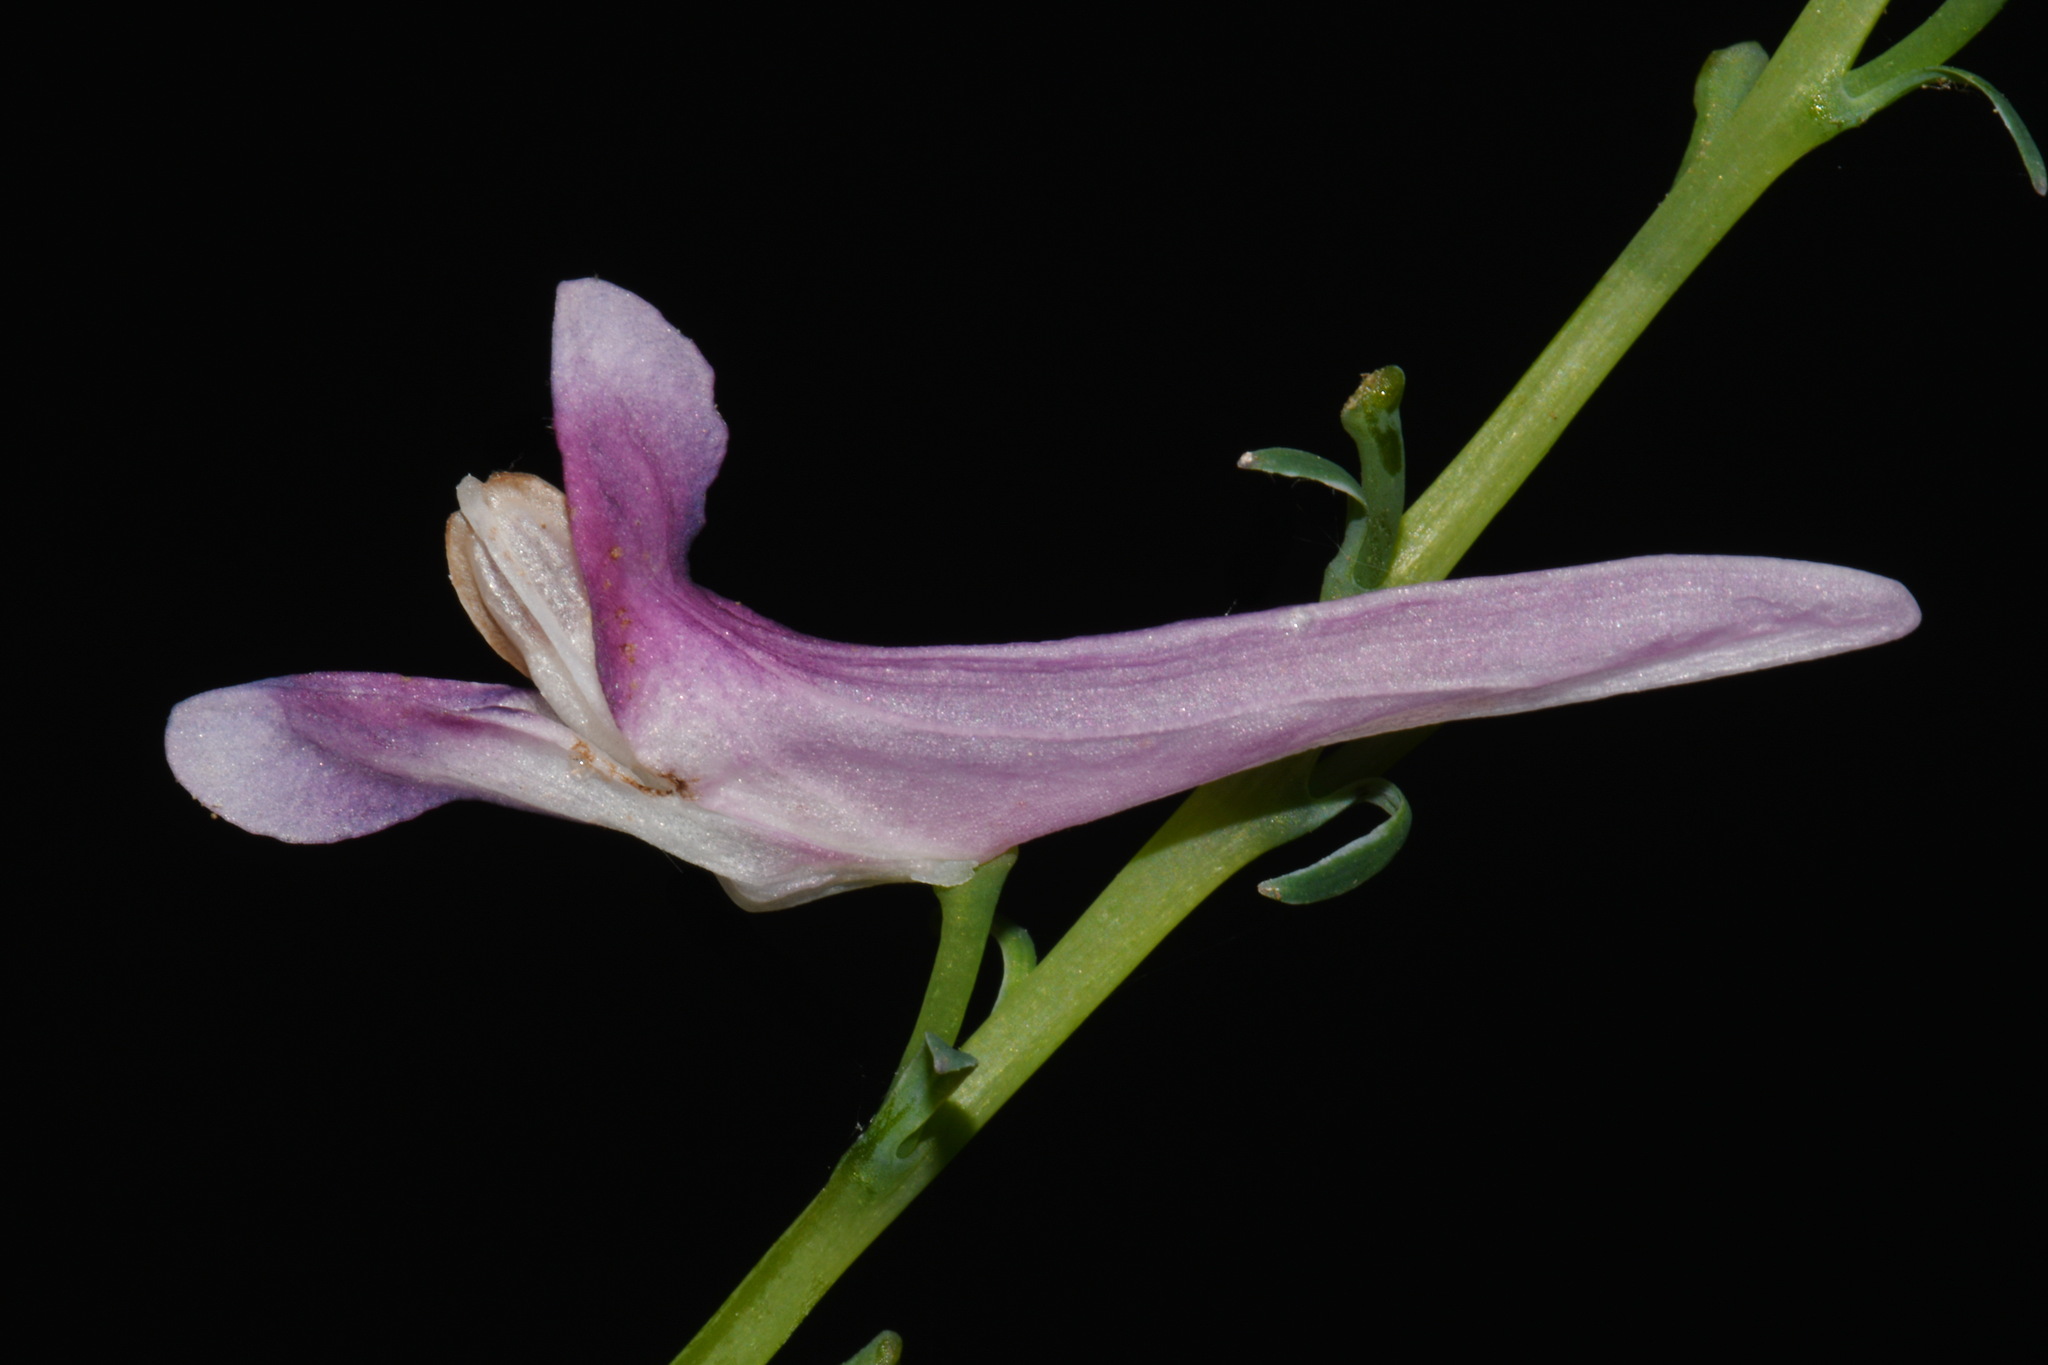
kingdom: Plantae
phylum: Tracheophyta
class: Magnoliopsida
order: Ranunculales
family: Papaveraceae
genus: Corydalis
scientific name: Corydalis scouleri
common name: Scouler's corydalis
